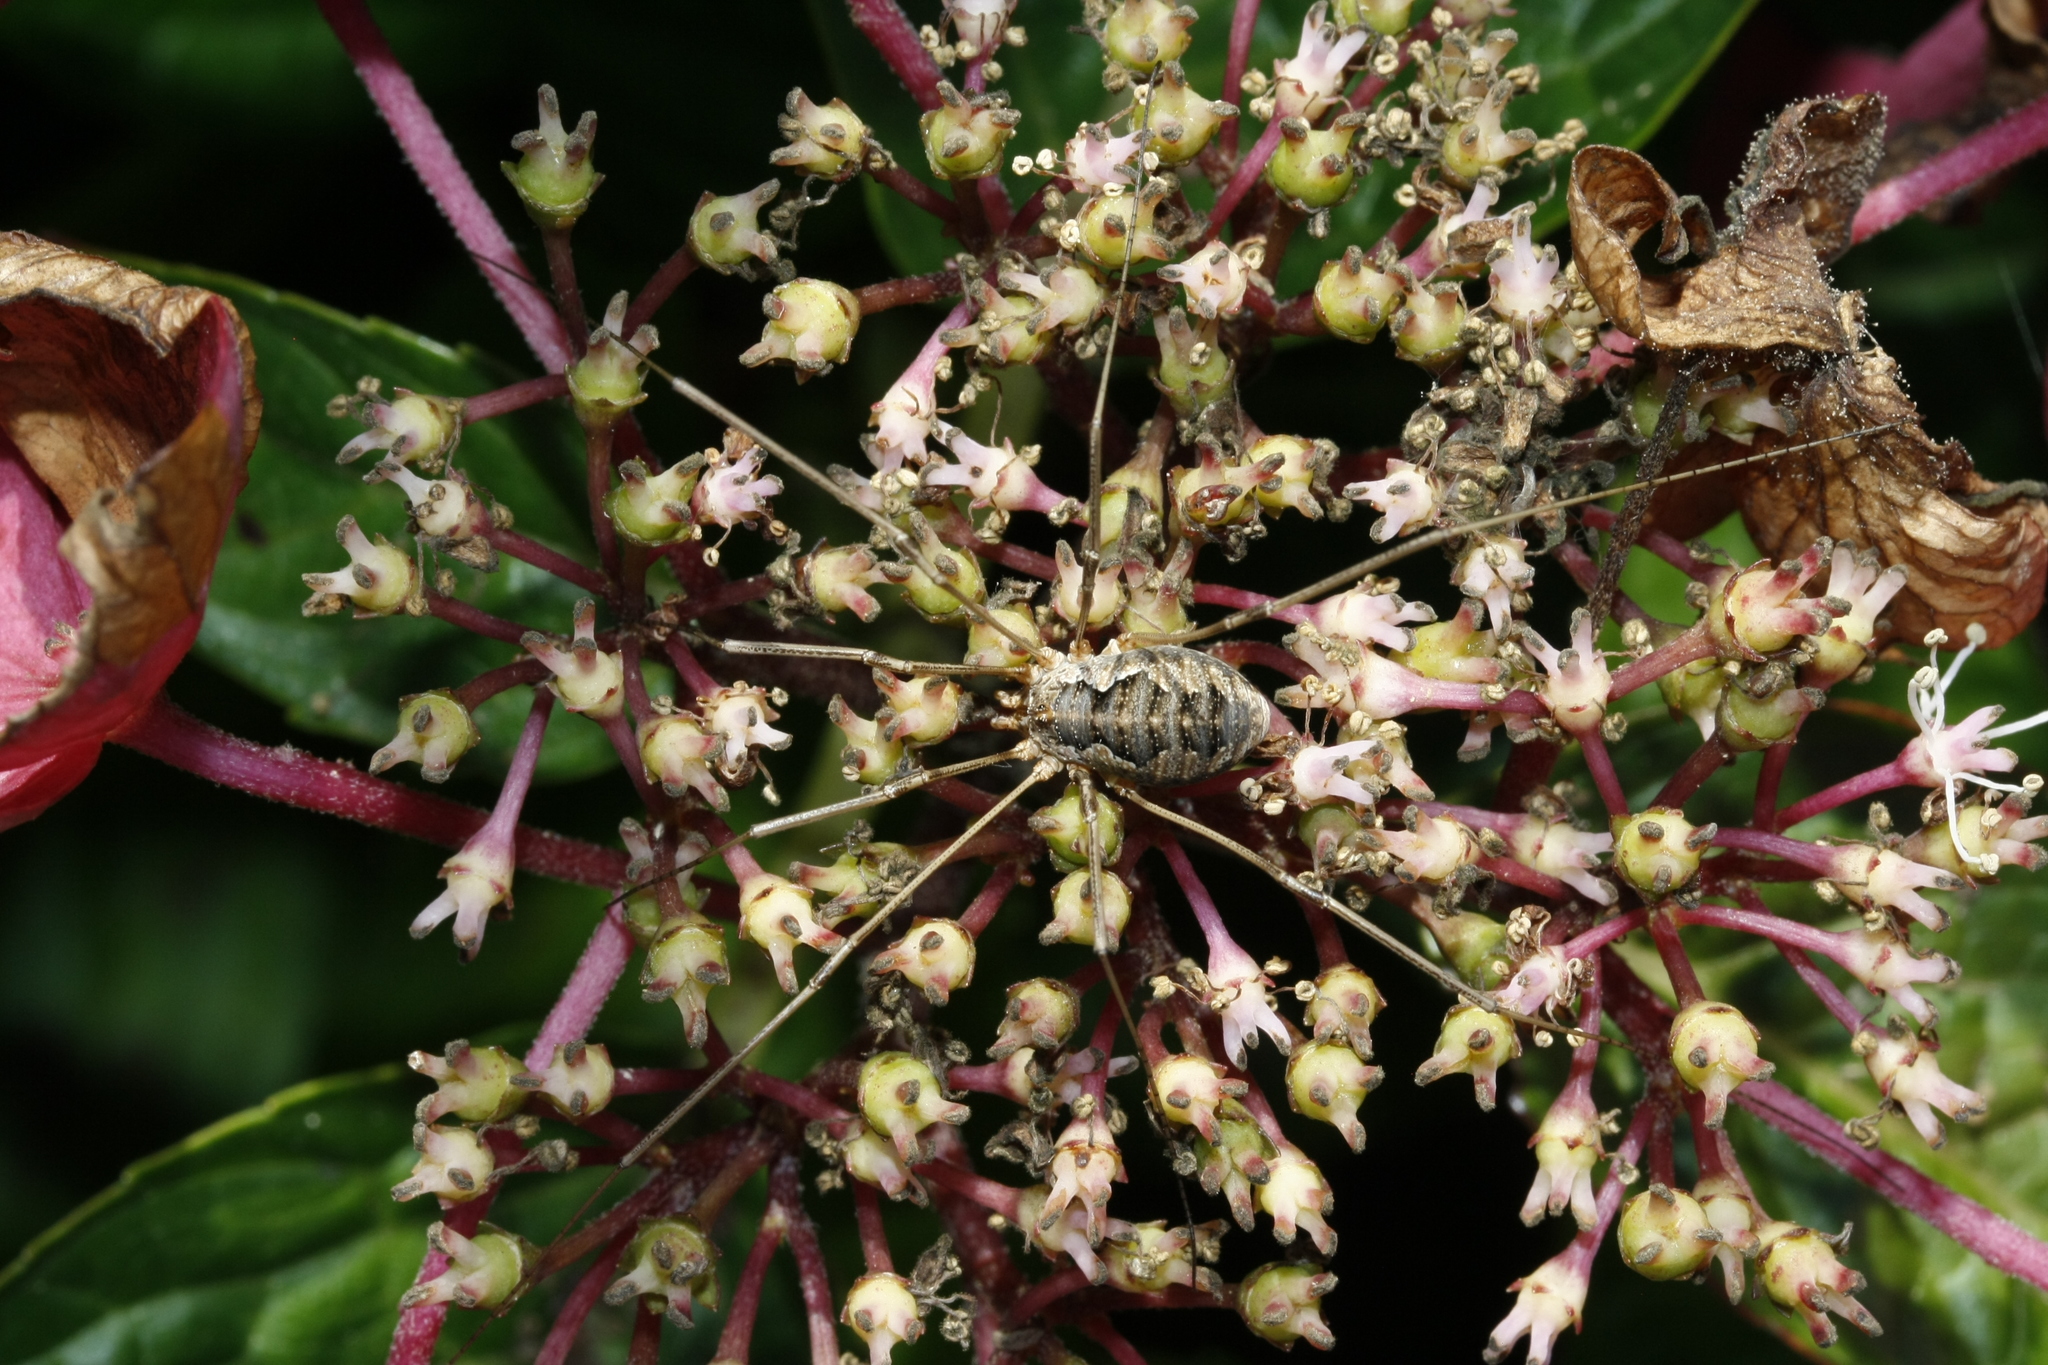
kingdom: Animalia
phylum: Arthropoda
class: Arachnida
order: Opiliones
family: Phalangiidae
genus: Phalangium
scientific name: Phalangium opilio
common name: Daddy longleg
